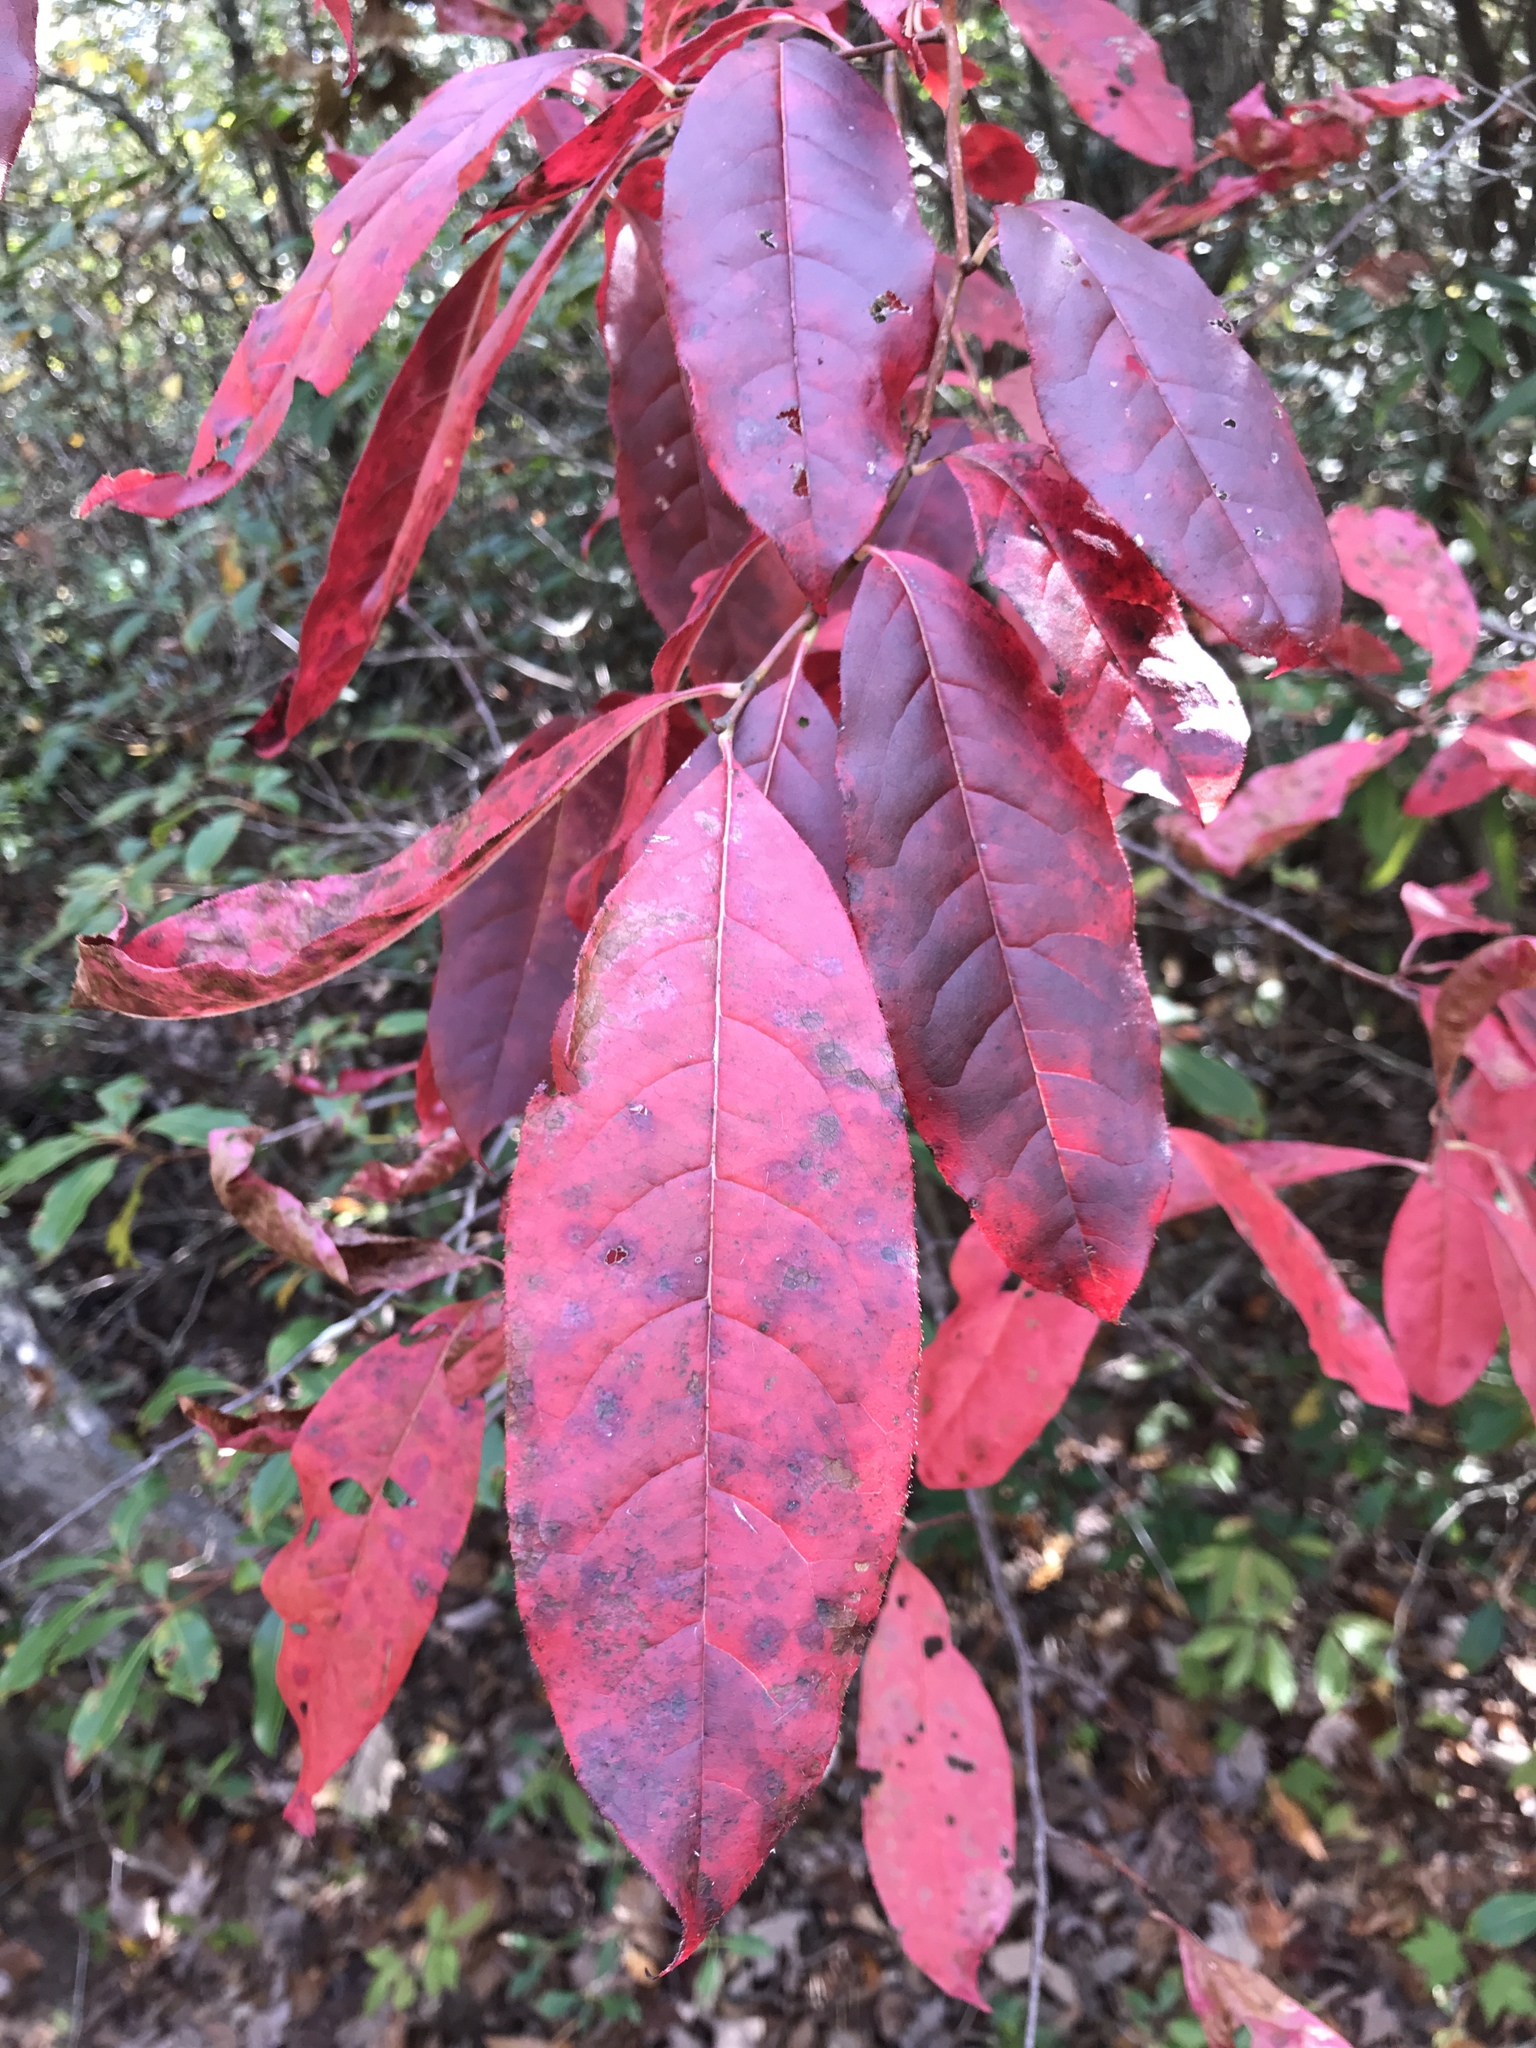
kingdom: Plantae
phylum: Tracheophyta
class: Magnoliopsida
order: Ericales
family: Ericaceae
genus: Oxydendrum
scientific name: Oxydendrum arboreum
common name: Sourwood
